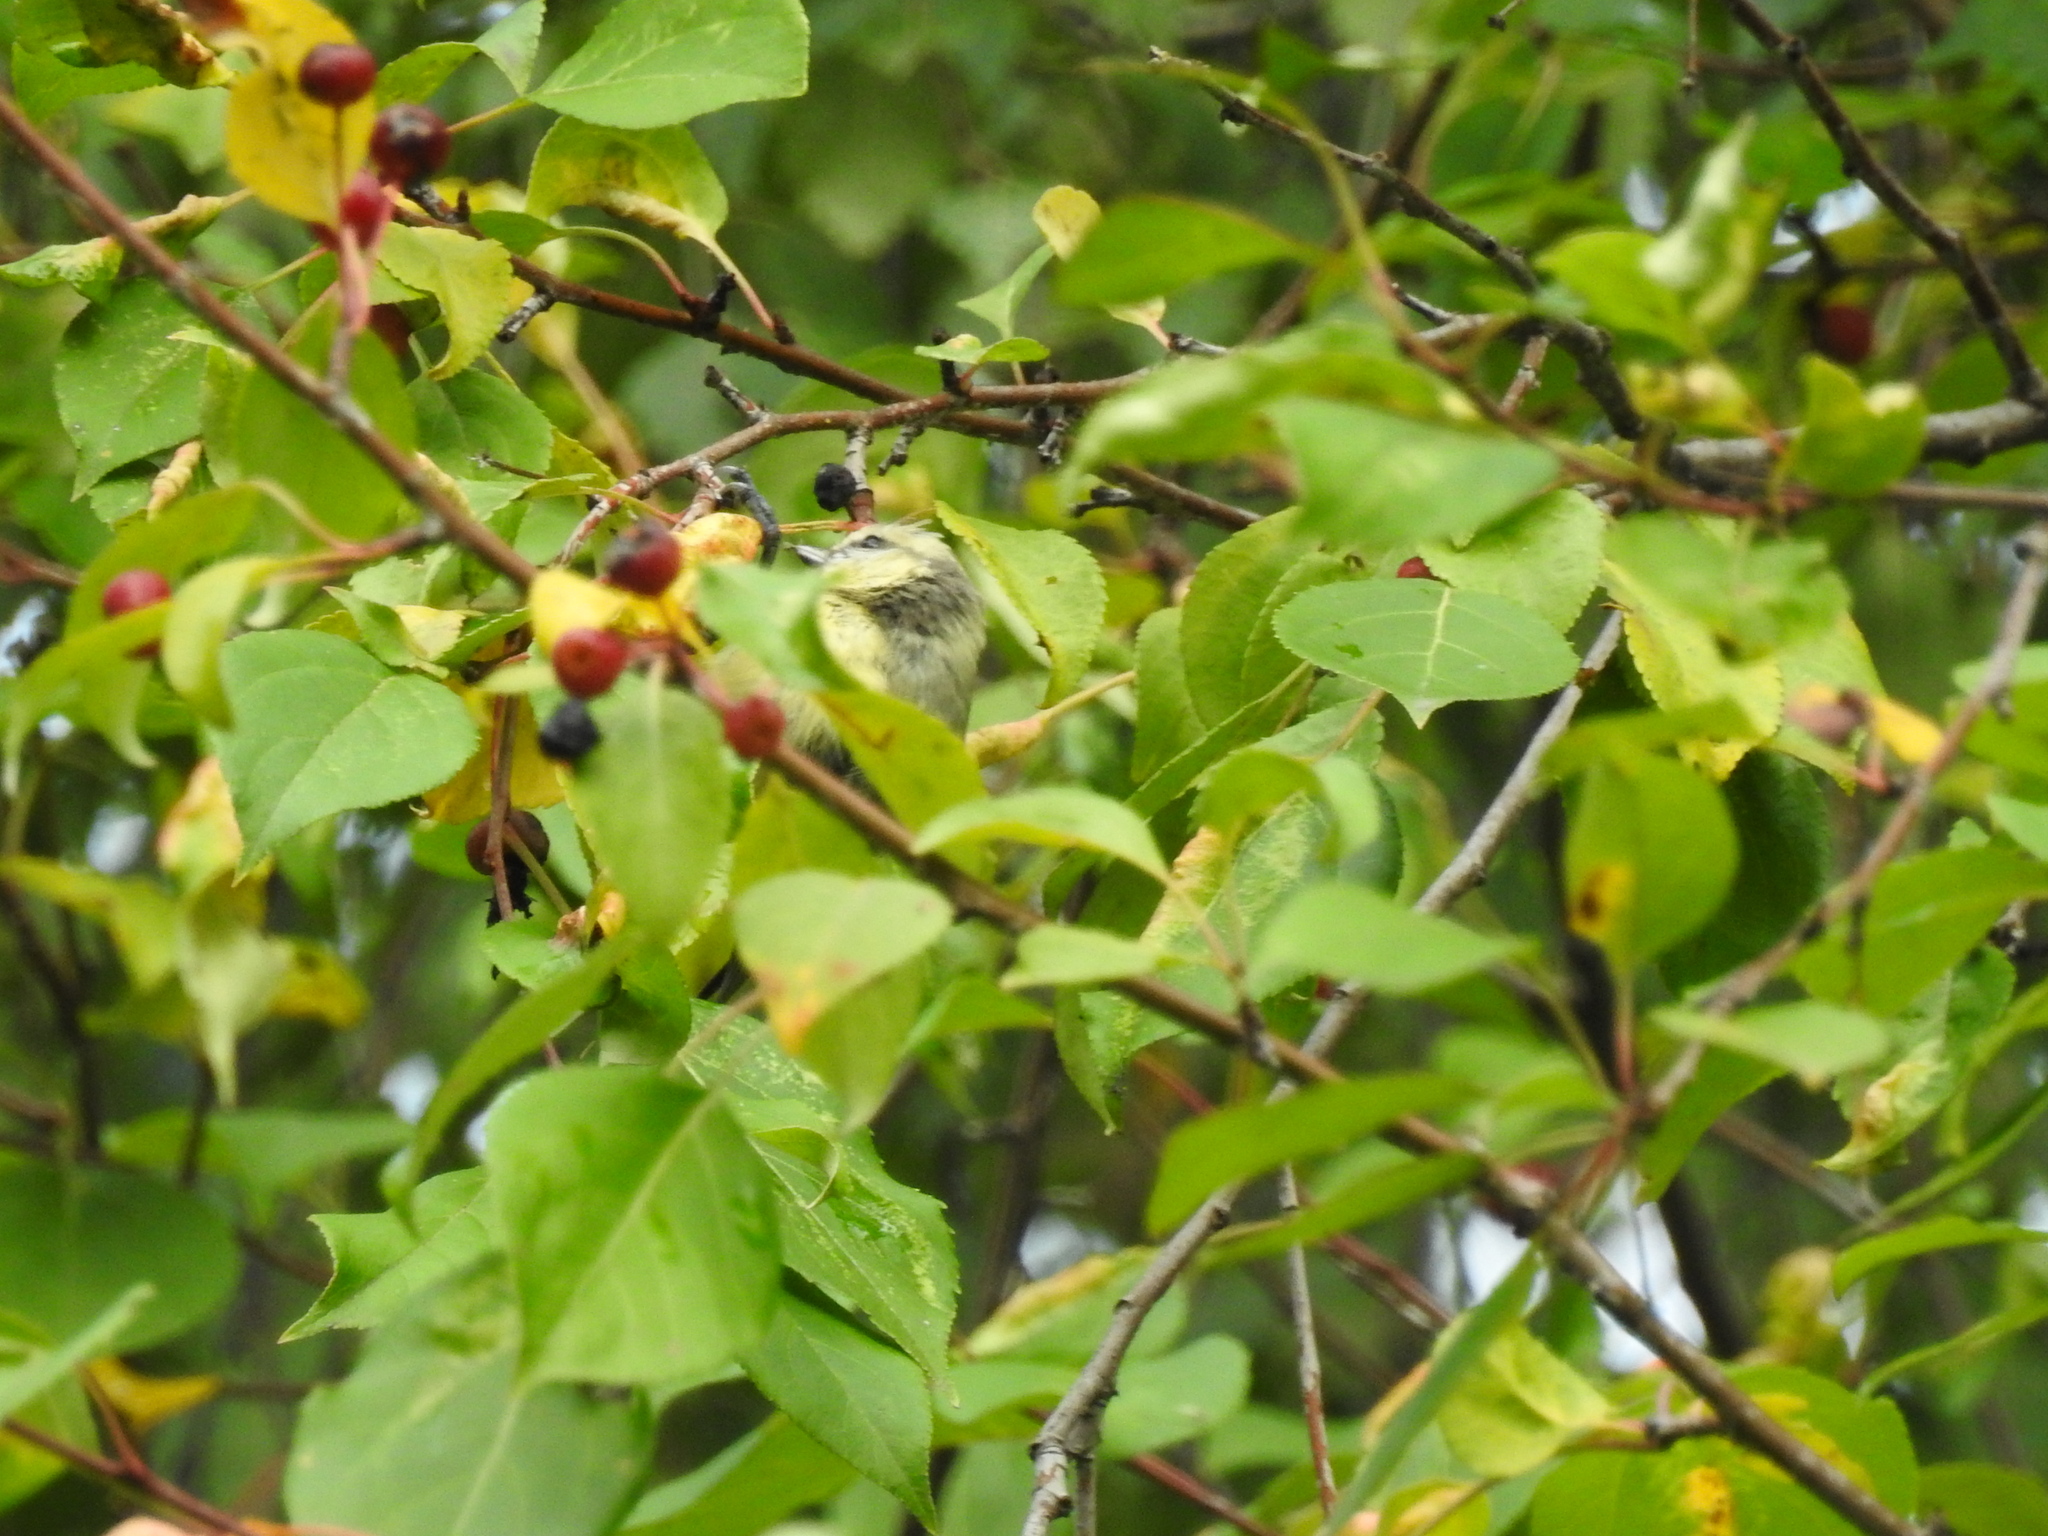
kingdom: Animalia
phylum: Chordata
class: Aves
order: Passeriformes
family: Paridae
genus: Cyanistes
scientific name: Cyanistes caeruleus
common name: Eurasian blue tit
